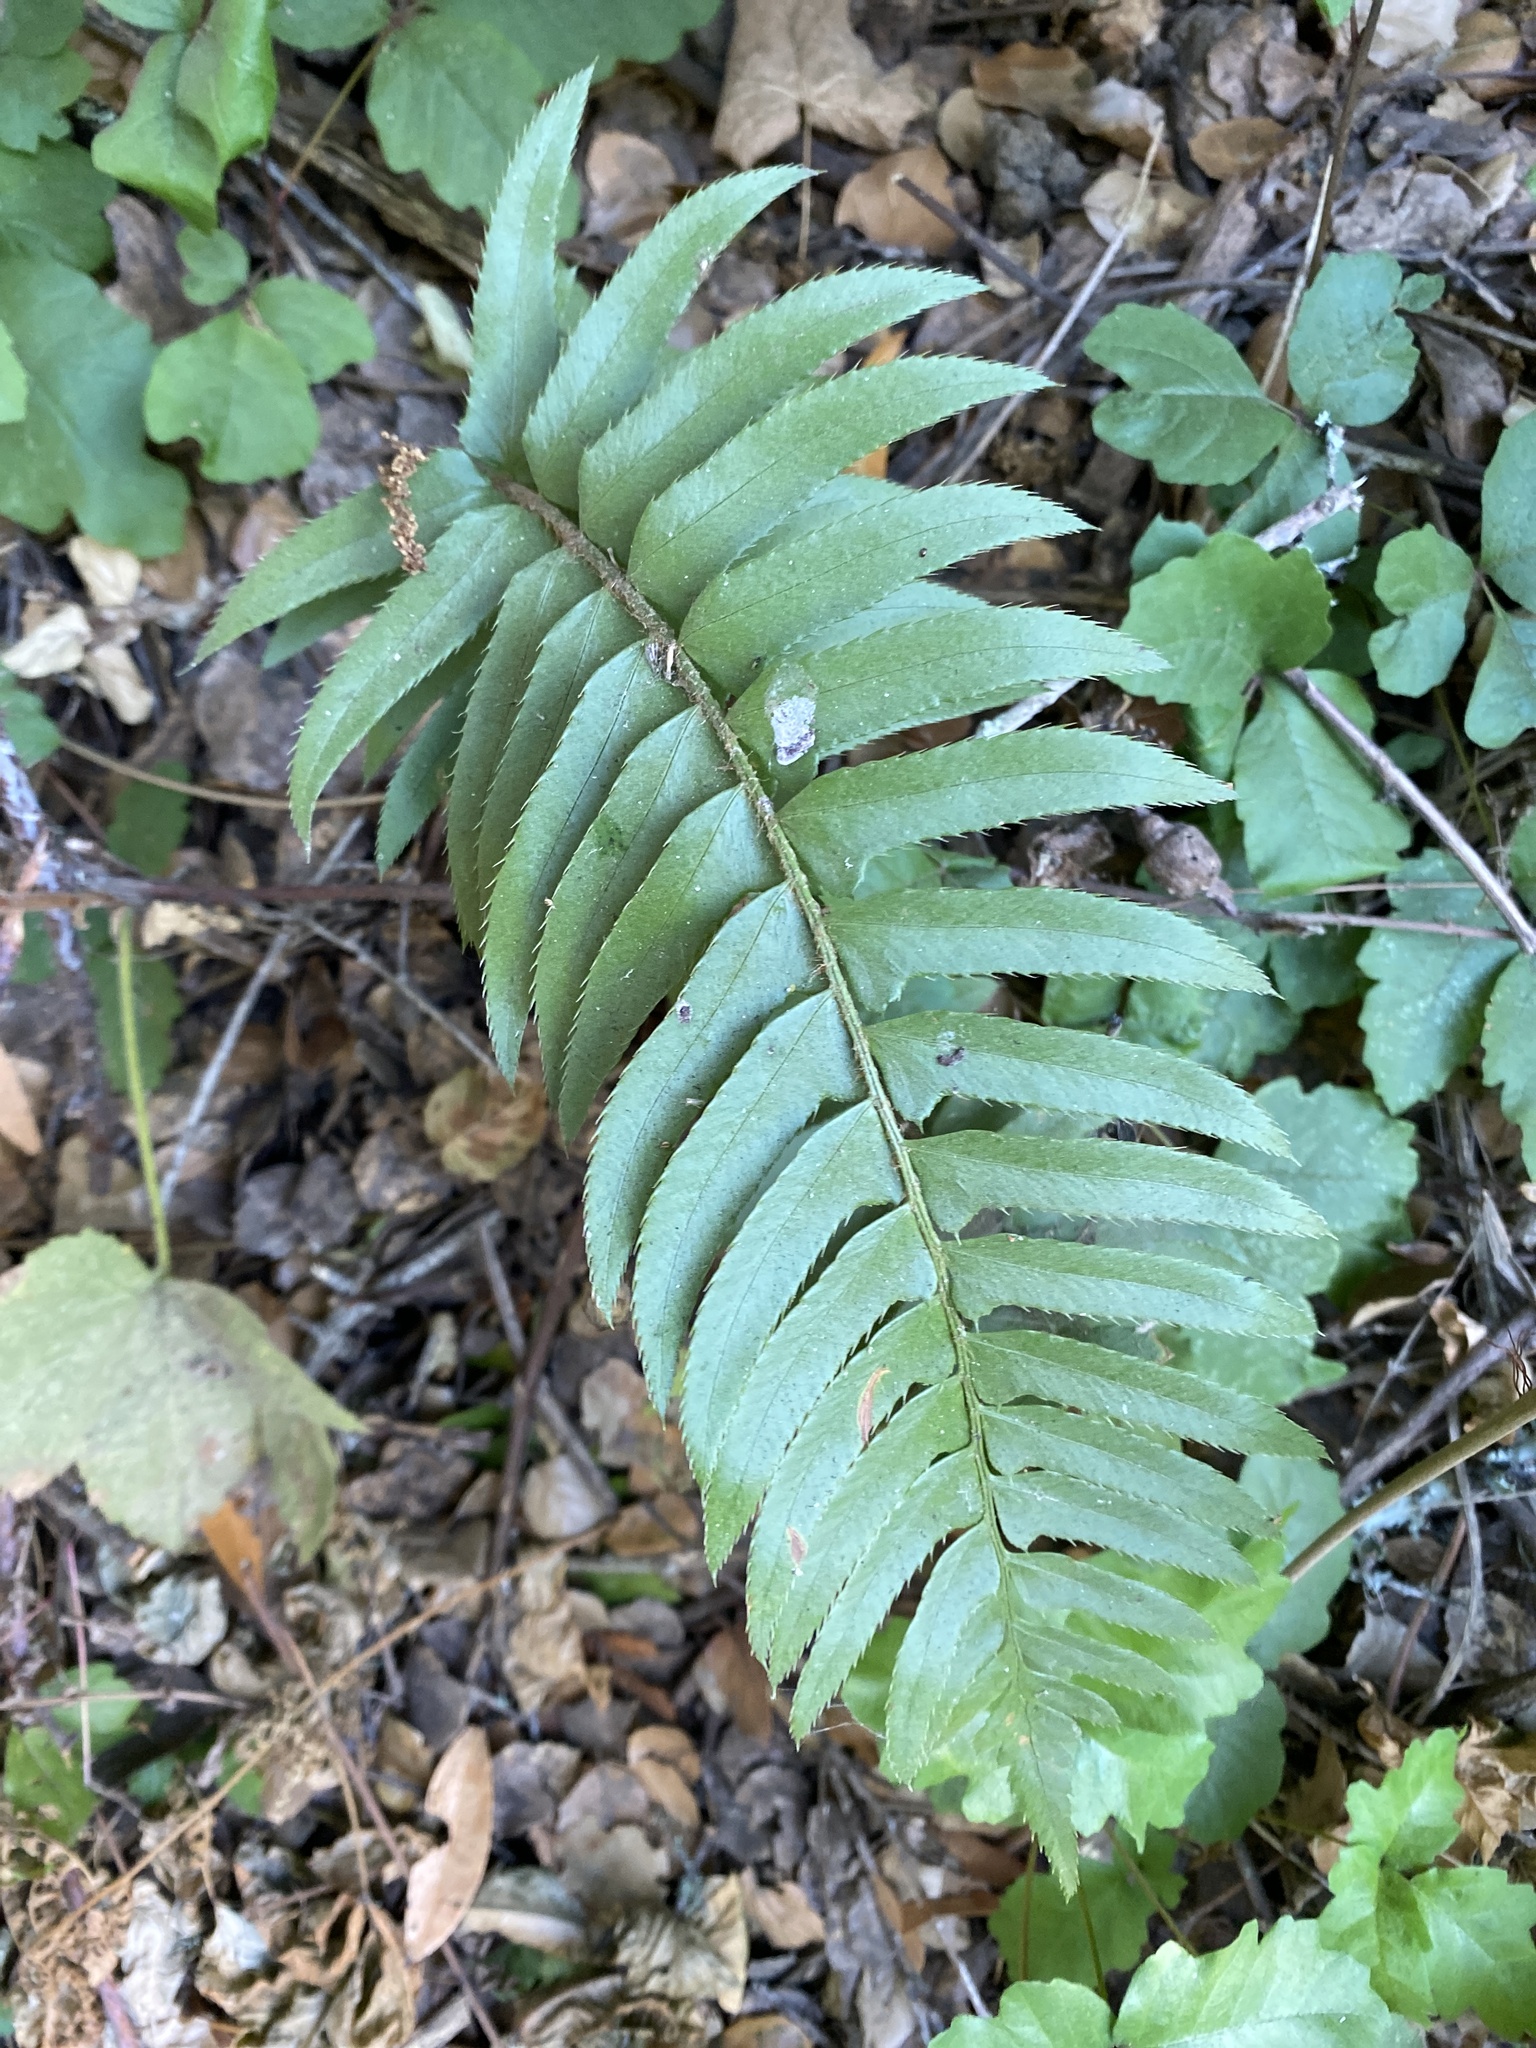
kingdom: Plantae
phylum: Tracheophyta
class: Polypodiopsida
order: Polypodiales
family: Dryopteridaceae
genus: Polystichum
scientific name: Polystichum munitum
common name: Western sword-fern
